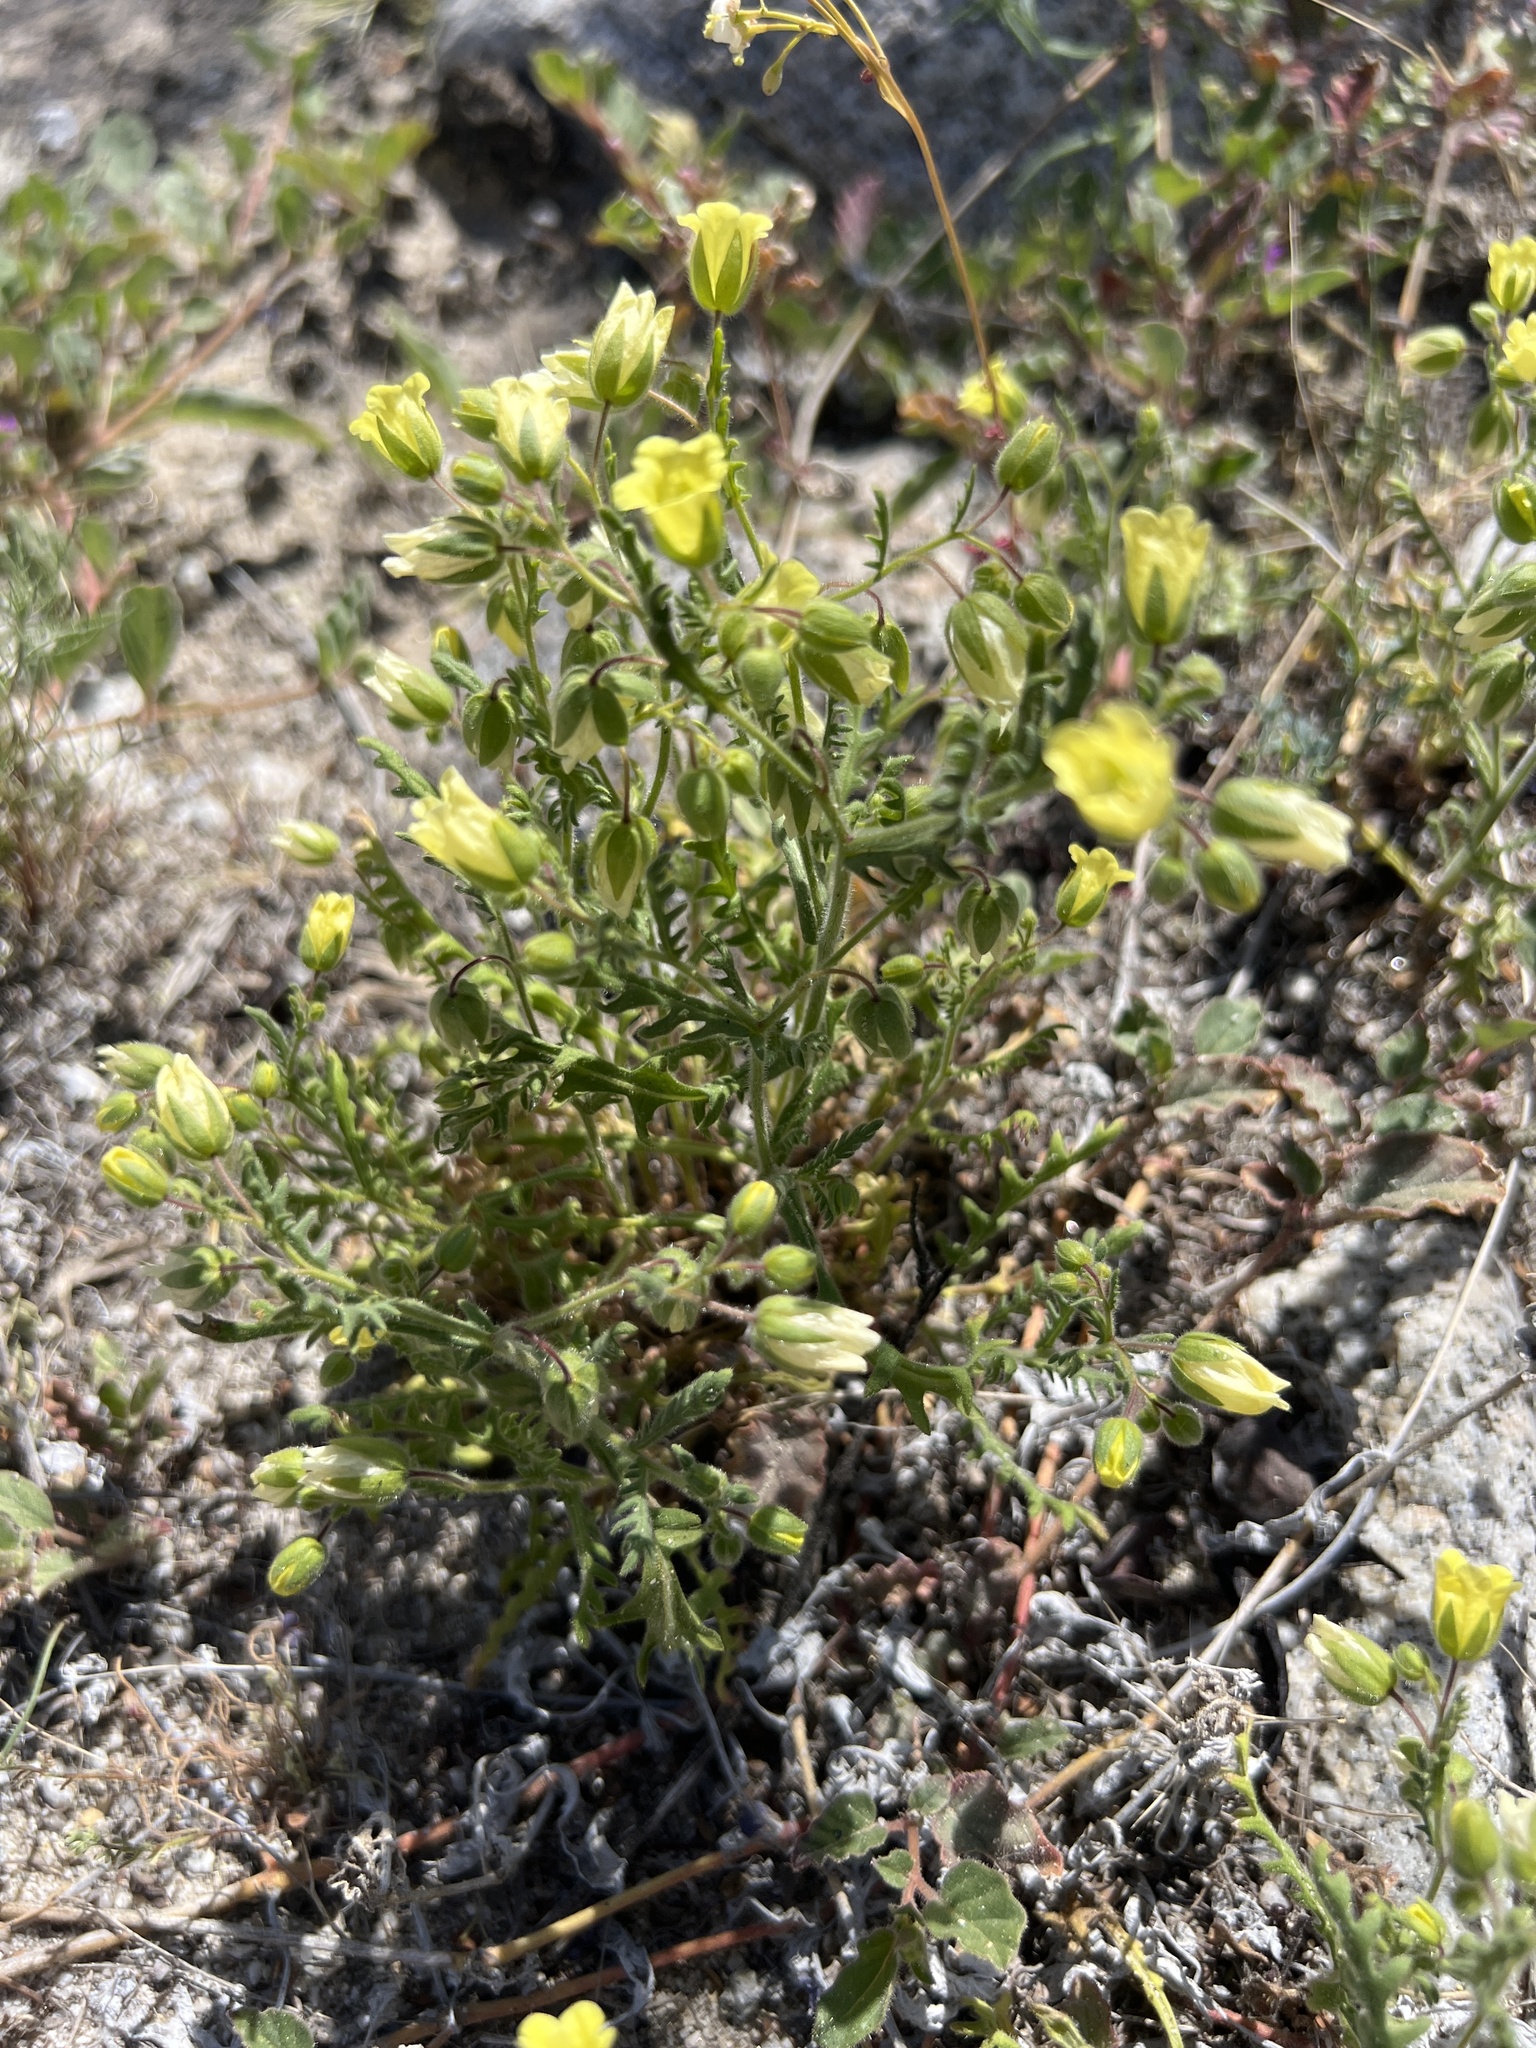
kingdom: Plantae
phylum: Tracheophyta
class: Magnoliopsida
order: Boraginales
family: Hydrophyllaceae
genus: Emmenanthe
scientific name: Emmenanthe penduliflora
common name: Whispering-bells
